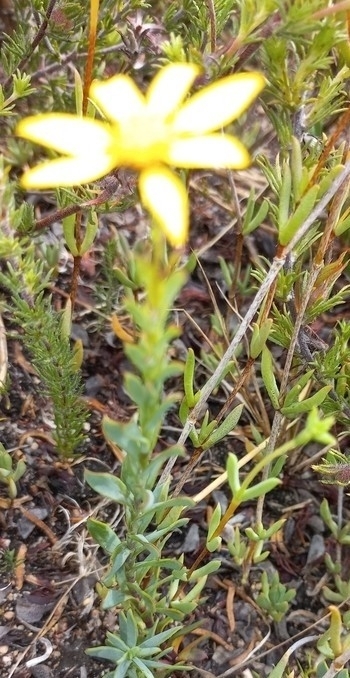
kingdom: Plantae
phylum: Tracheophyta
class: Magnoliopsida
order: Asterales
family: Asteraceae
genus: Osteospermum
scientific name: Osteospermum polygaloides
